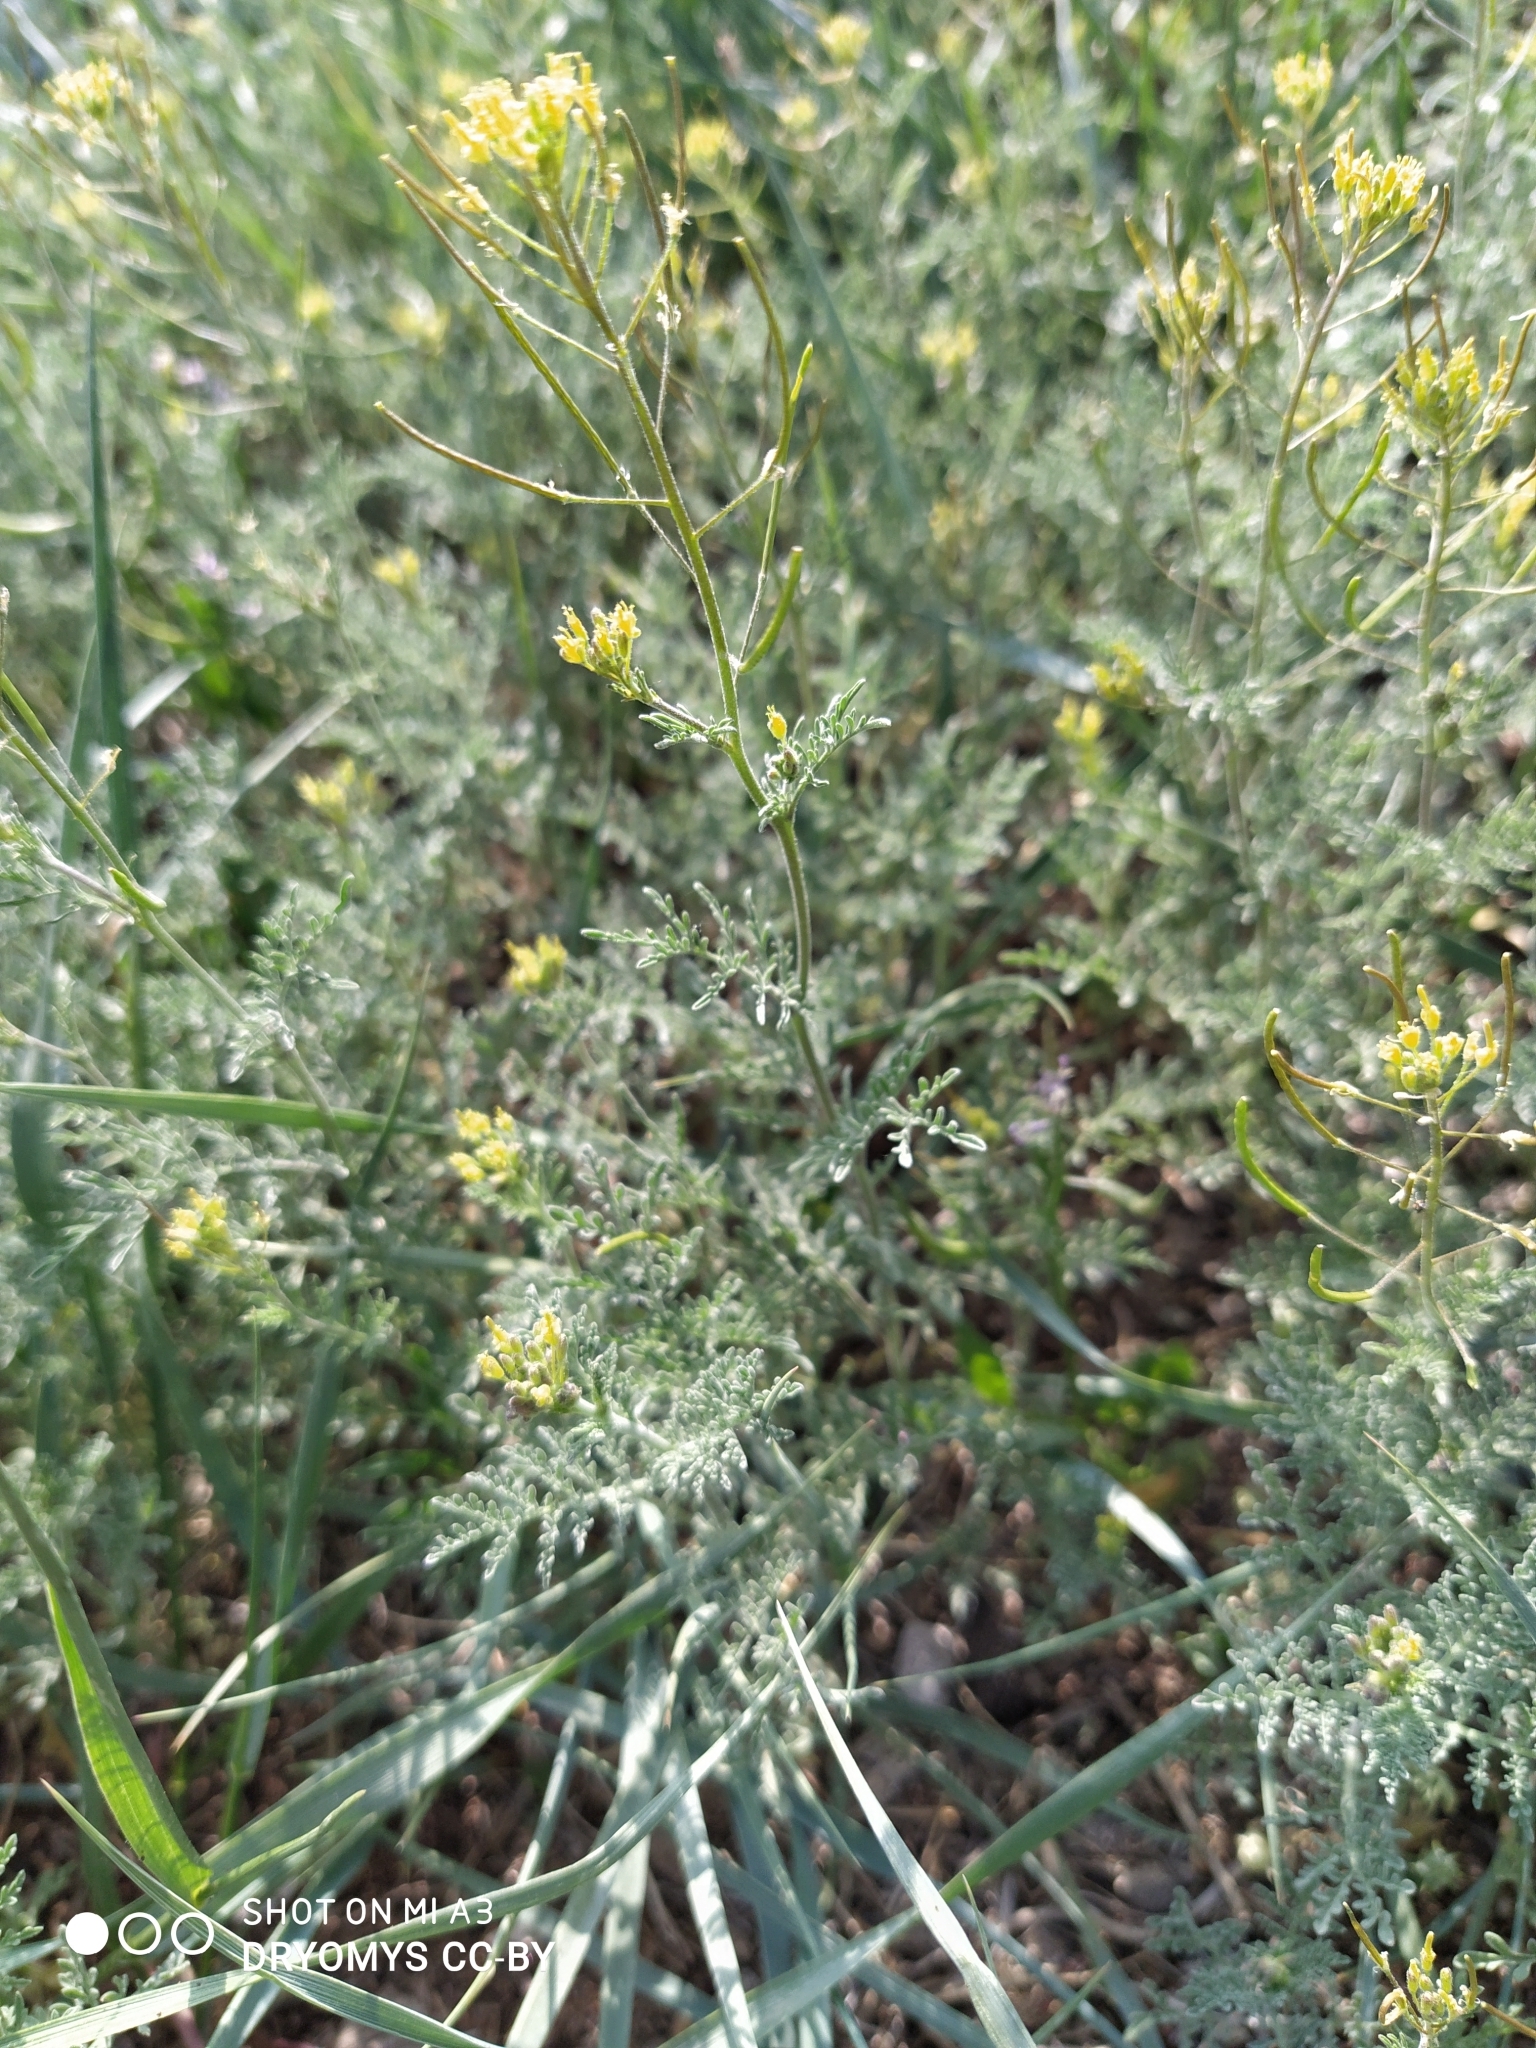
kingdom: Plantae
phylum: Tracheophyta
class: Magnoliopsida
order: Brassicales
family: Brassicaceae
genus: Descurainia
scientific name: Descurainia sophia
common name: Flixweed
